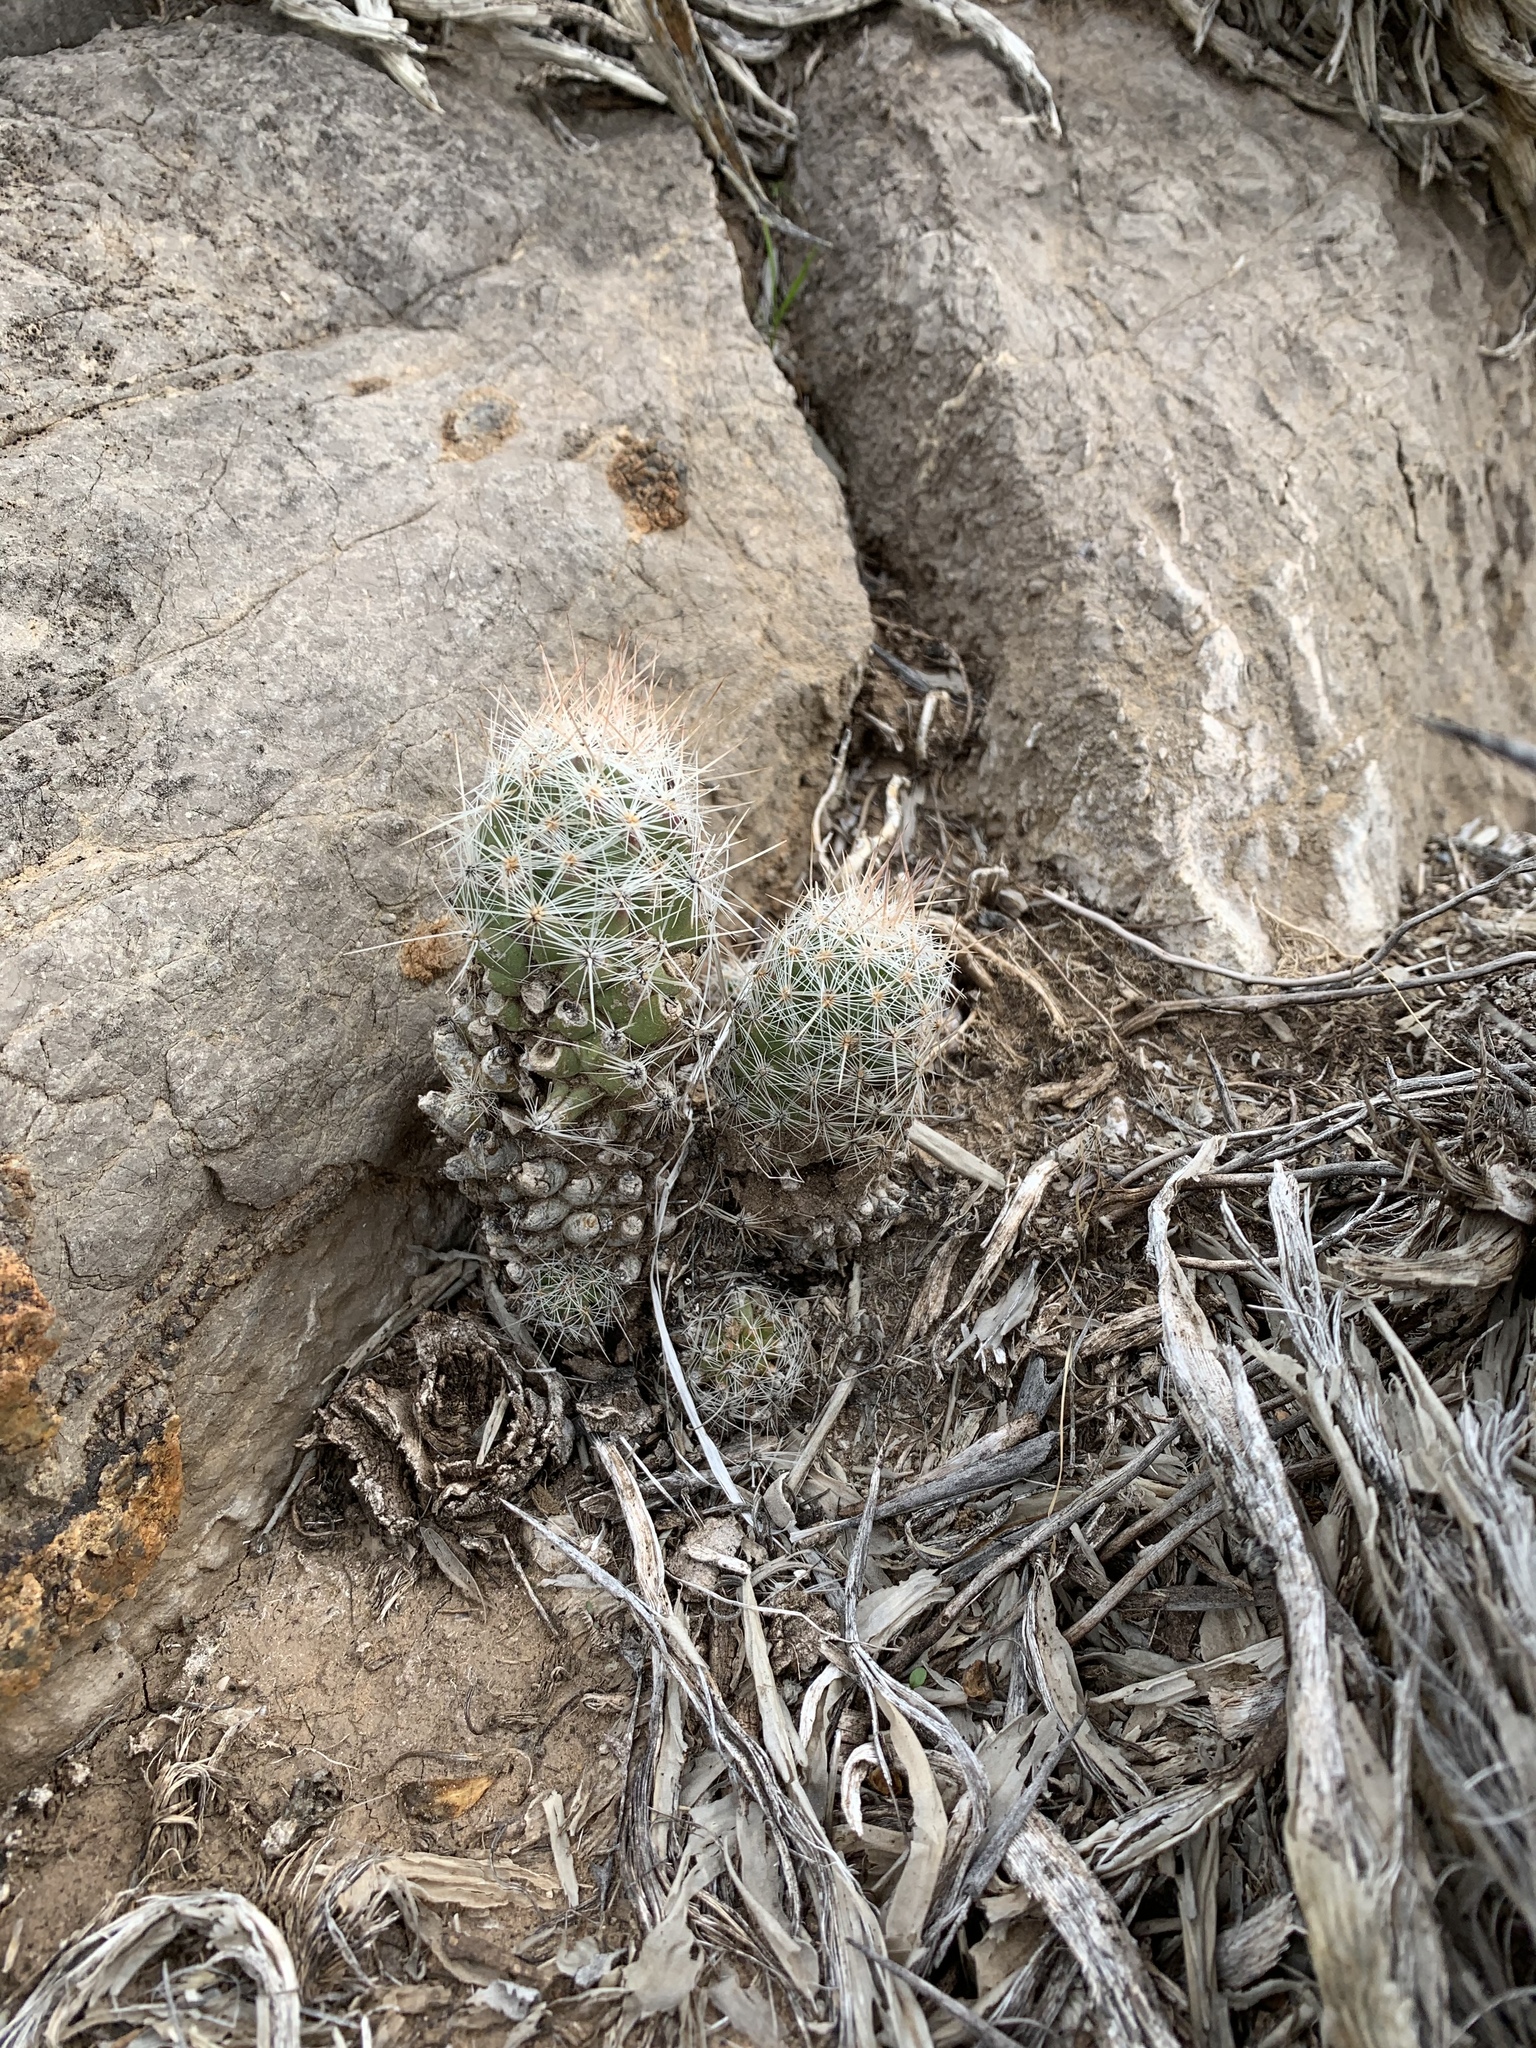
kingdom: Plantae
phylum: Tracheophyta
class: Magnoliopsida
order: Caryophyllales
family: Cactaceae
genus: Pelecyphora
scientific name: Pelecyphora tuberculosa
